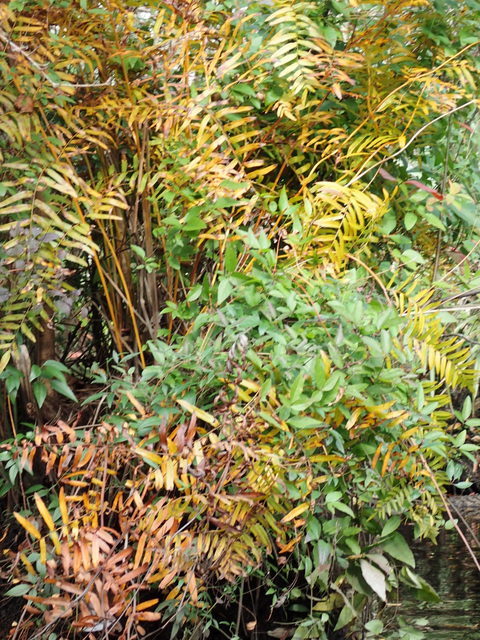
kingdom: Plantae
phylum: Tracheophyta
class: Polypodiopsida
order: Osmundales
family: Osmundaceae
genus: Osmunda
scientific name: Osmunda spectabilis
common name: American royal fern
